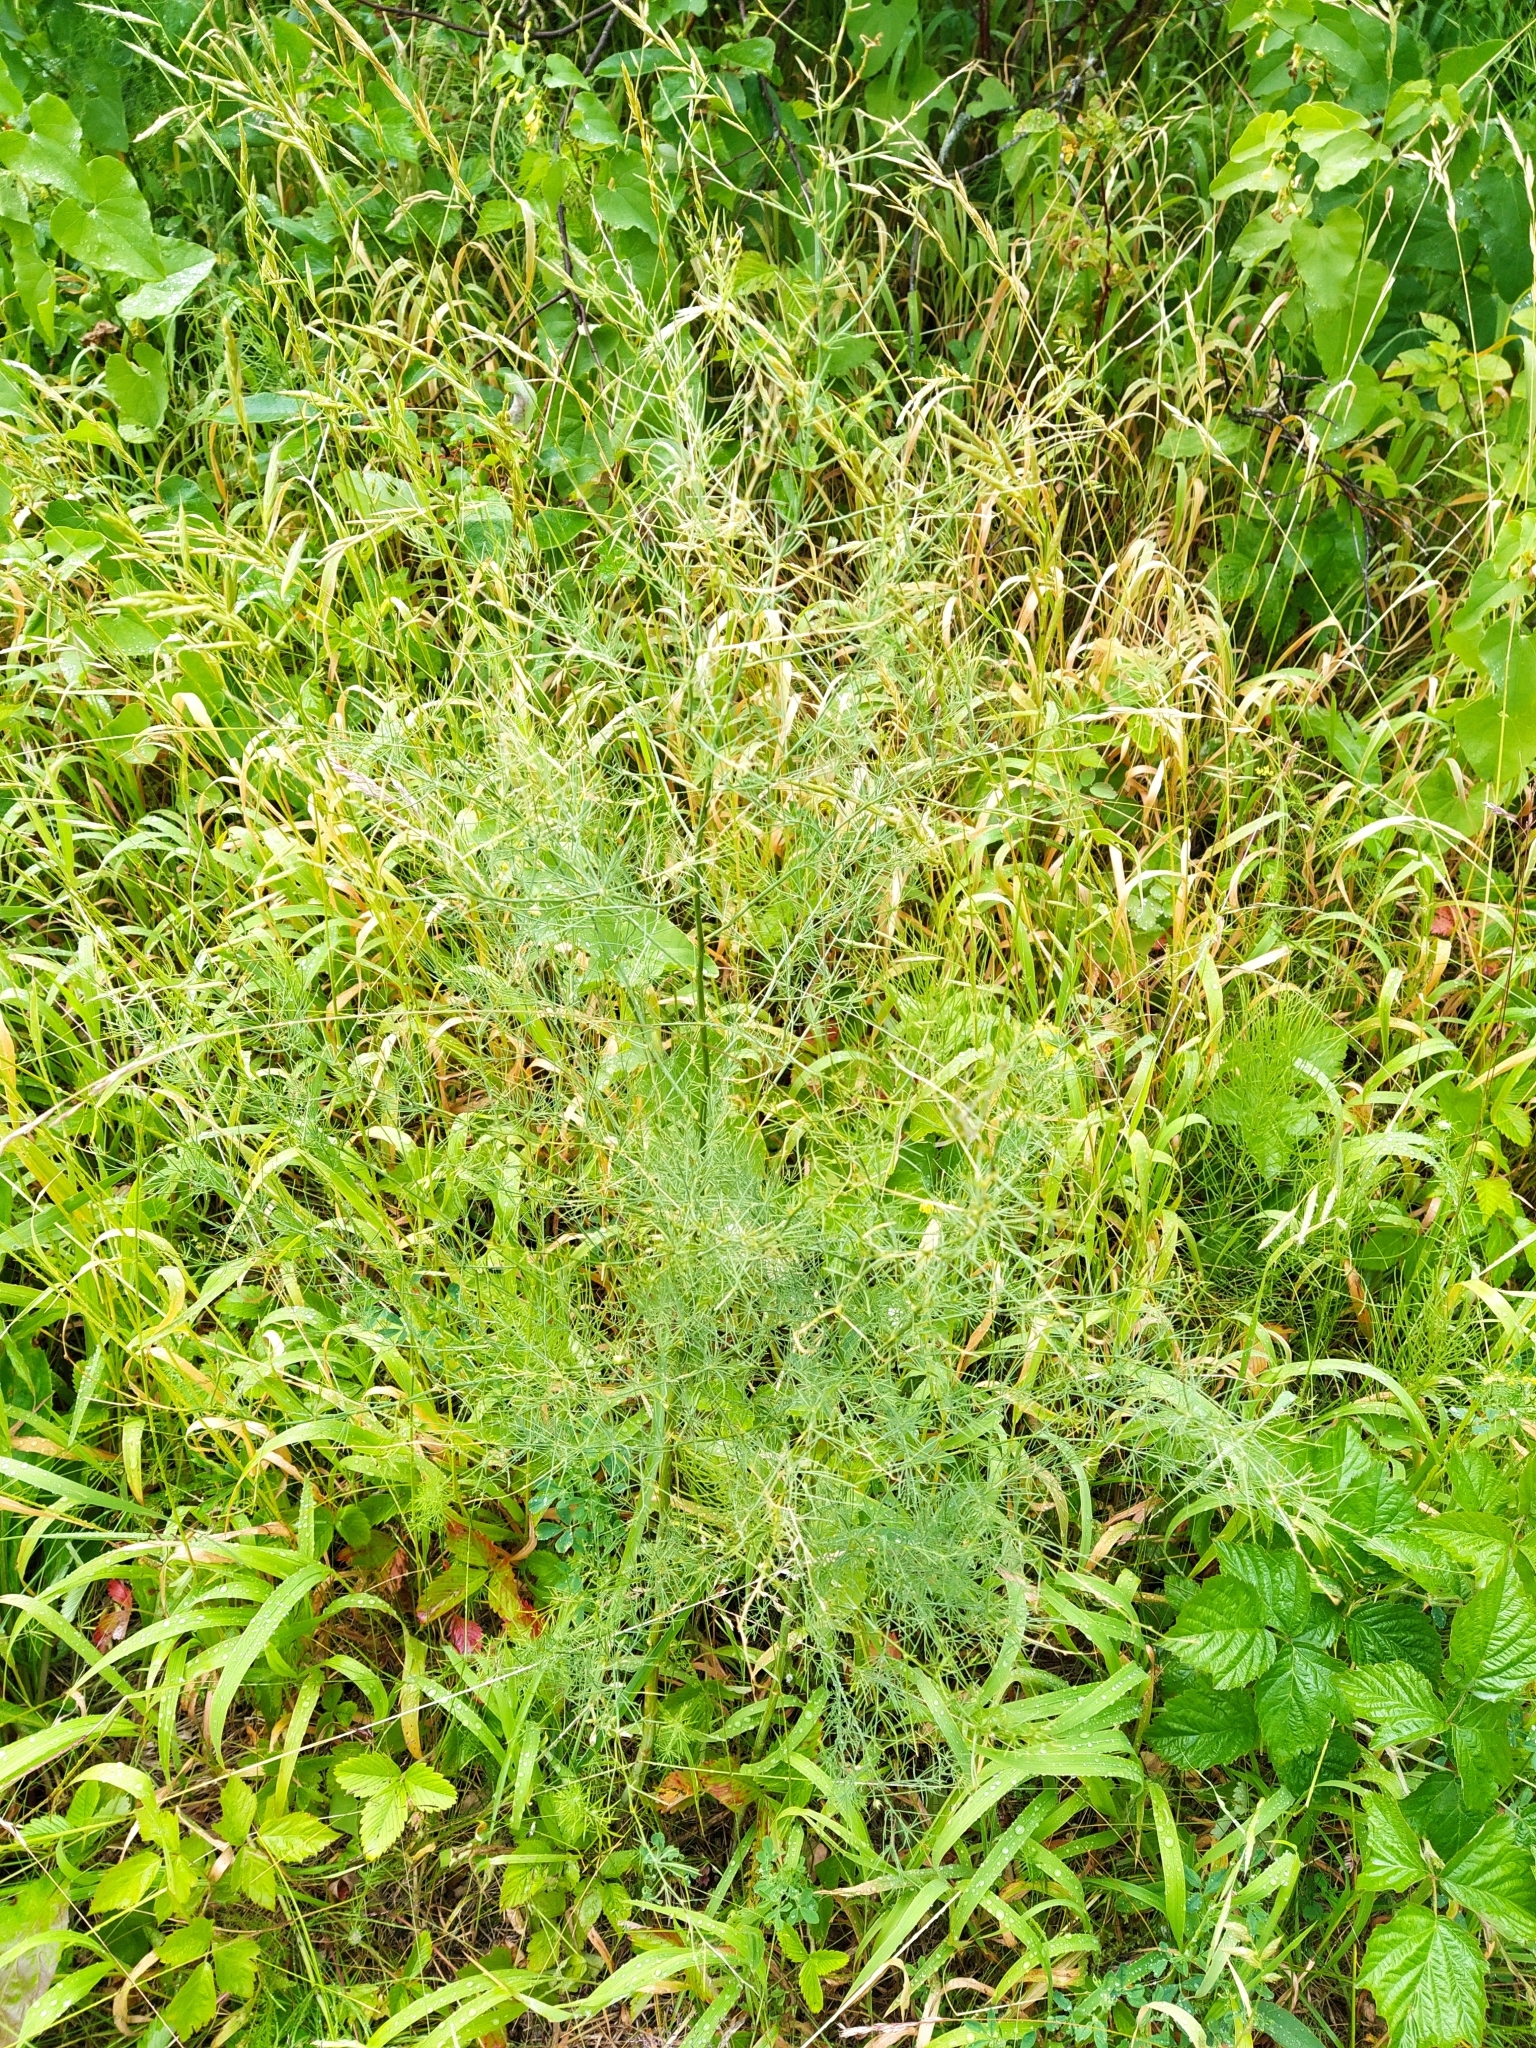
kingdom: Plantae
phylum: Tracheophyta
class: Liliopsida
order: Asparagales
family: Asparagaceae
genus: Asparagus
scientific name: Asparagus officinalis
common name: Garden asparagus
